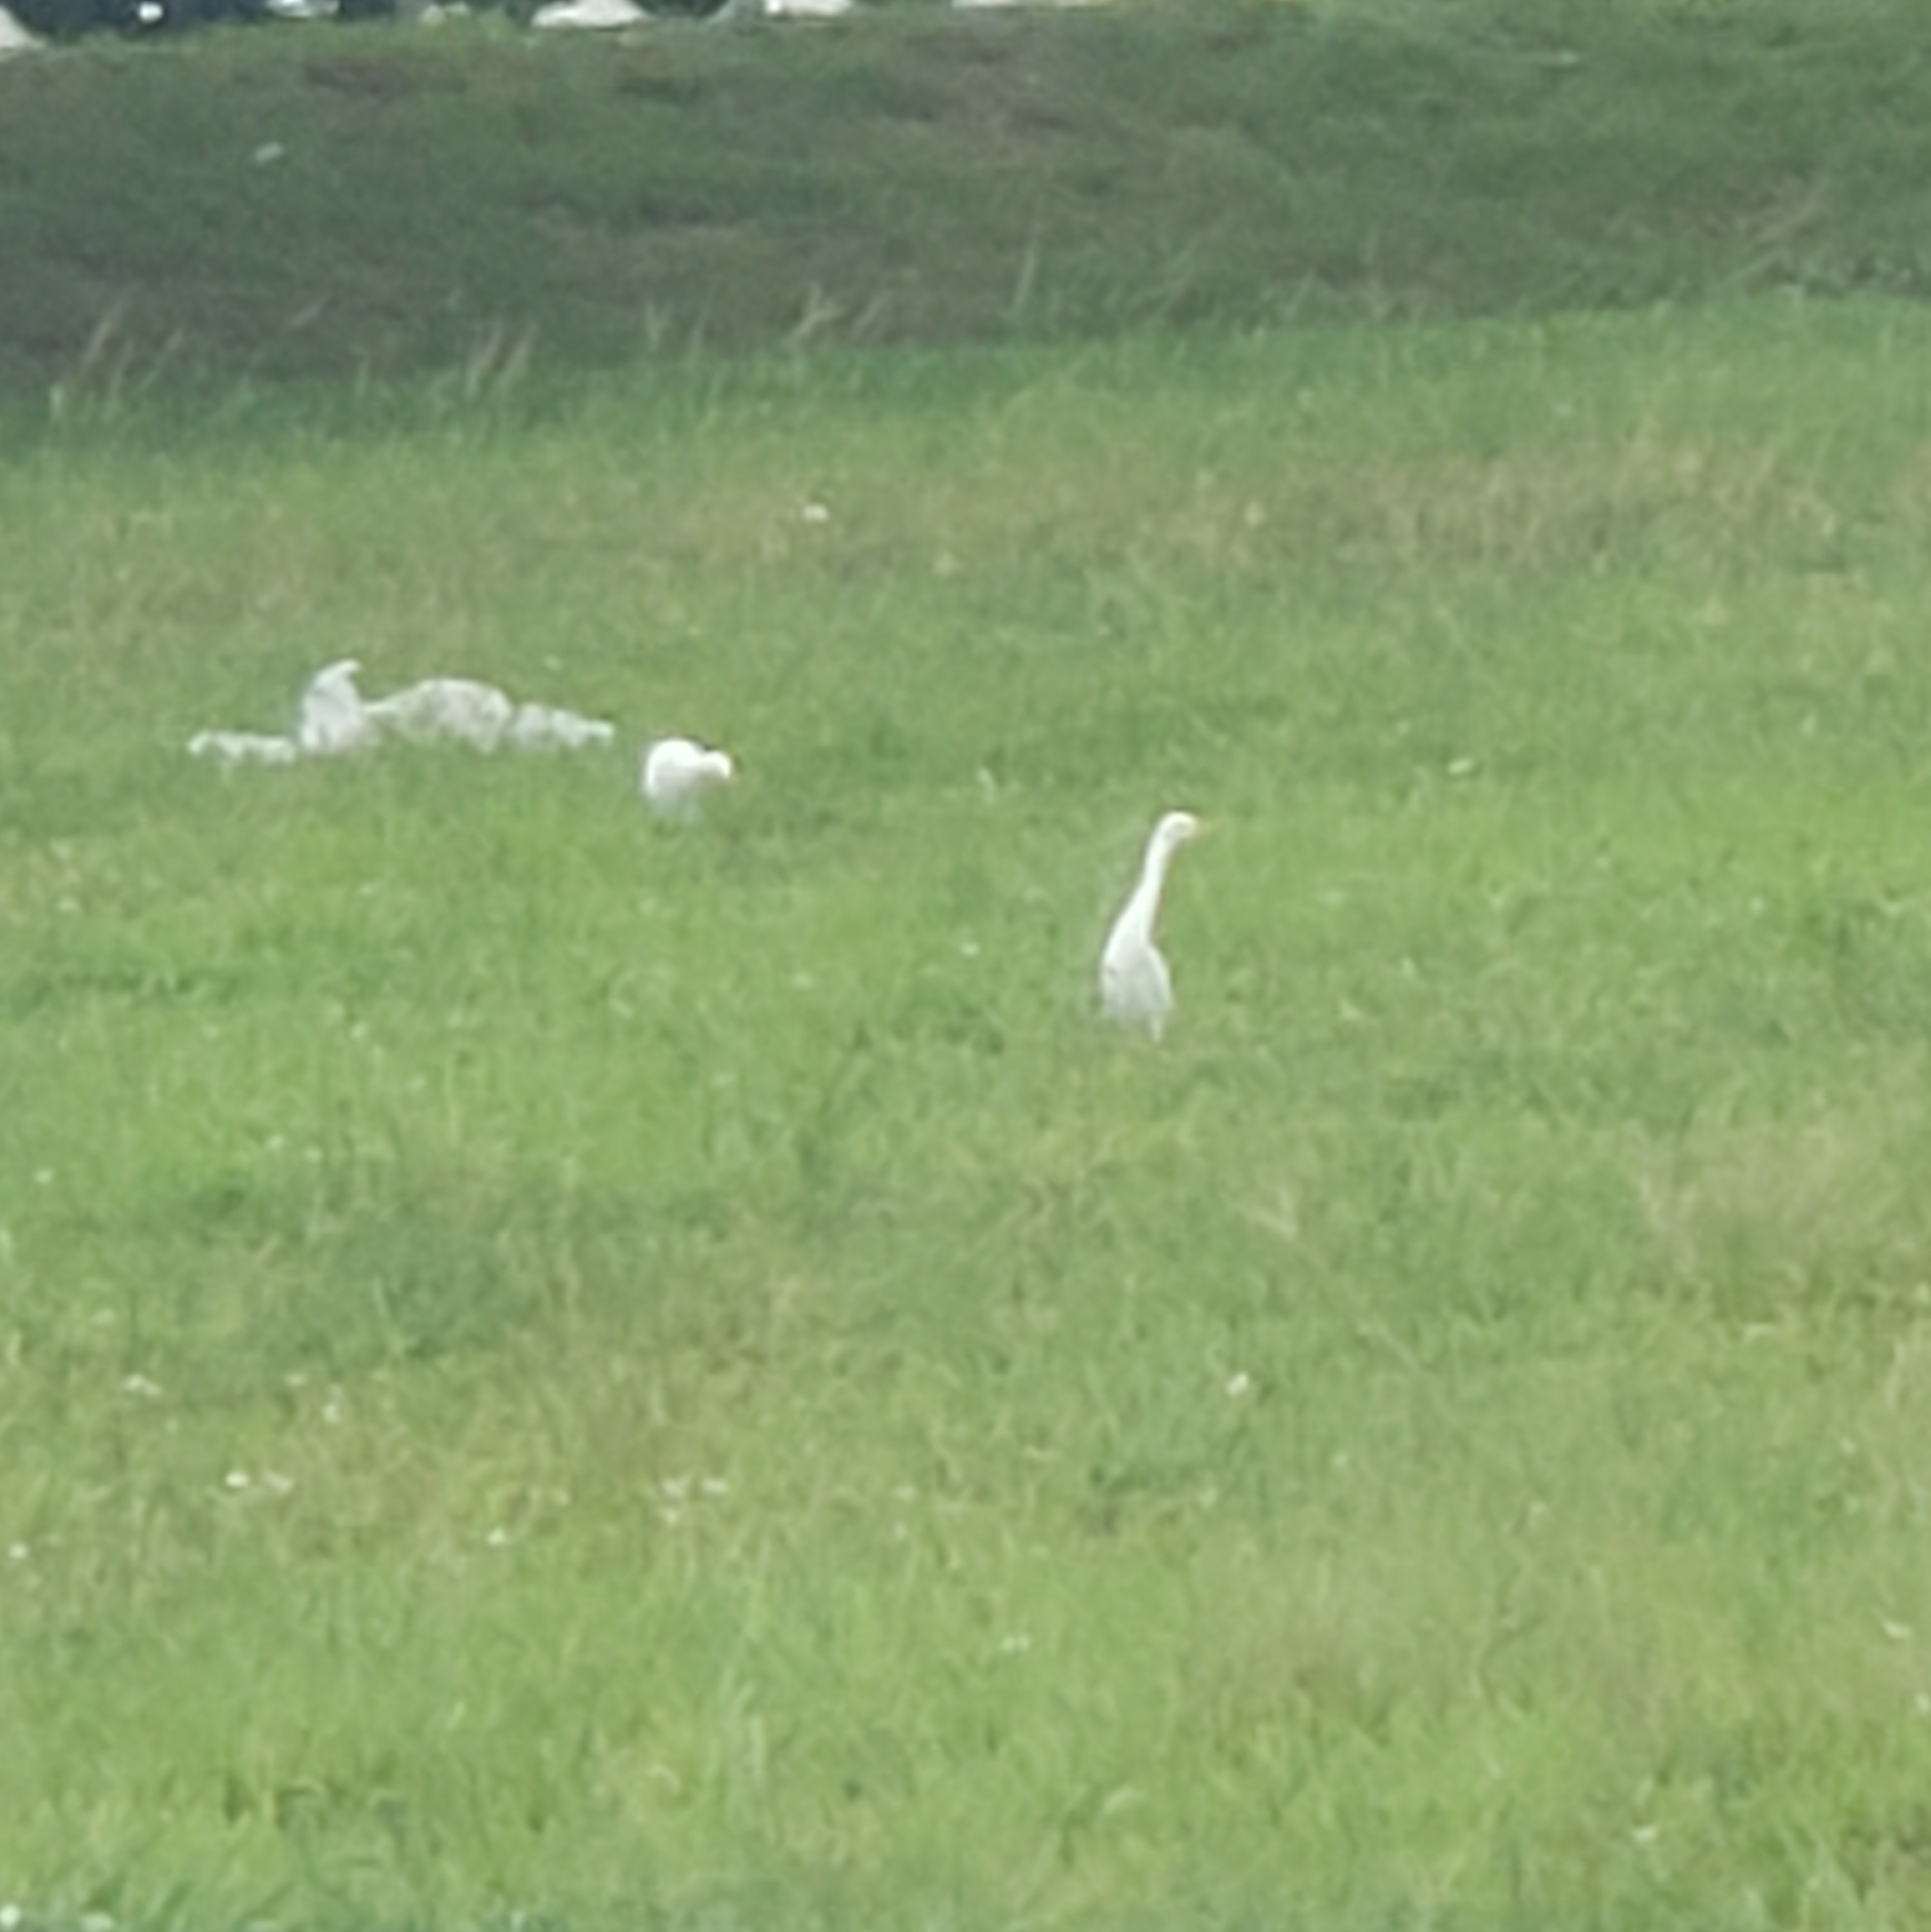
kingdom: Animalia
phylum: Chordata
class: Aves
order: Pelecaniformes
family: Ardeidae
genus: Bubulcus
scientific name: Bubulcus ibis
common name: Cattle egret
